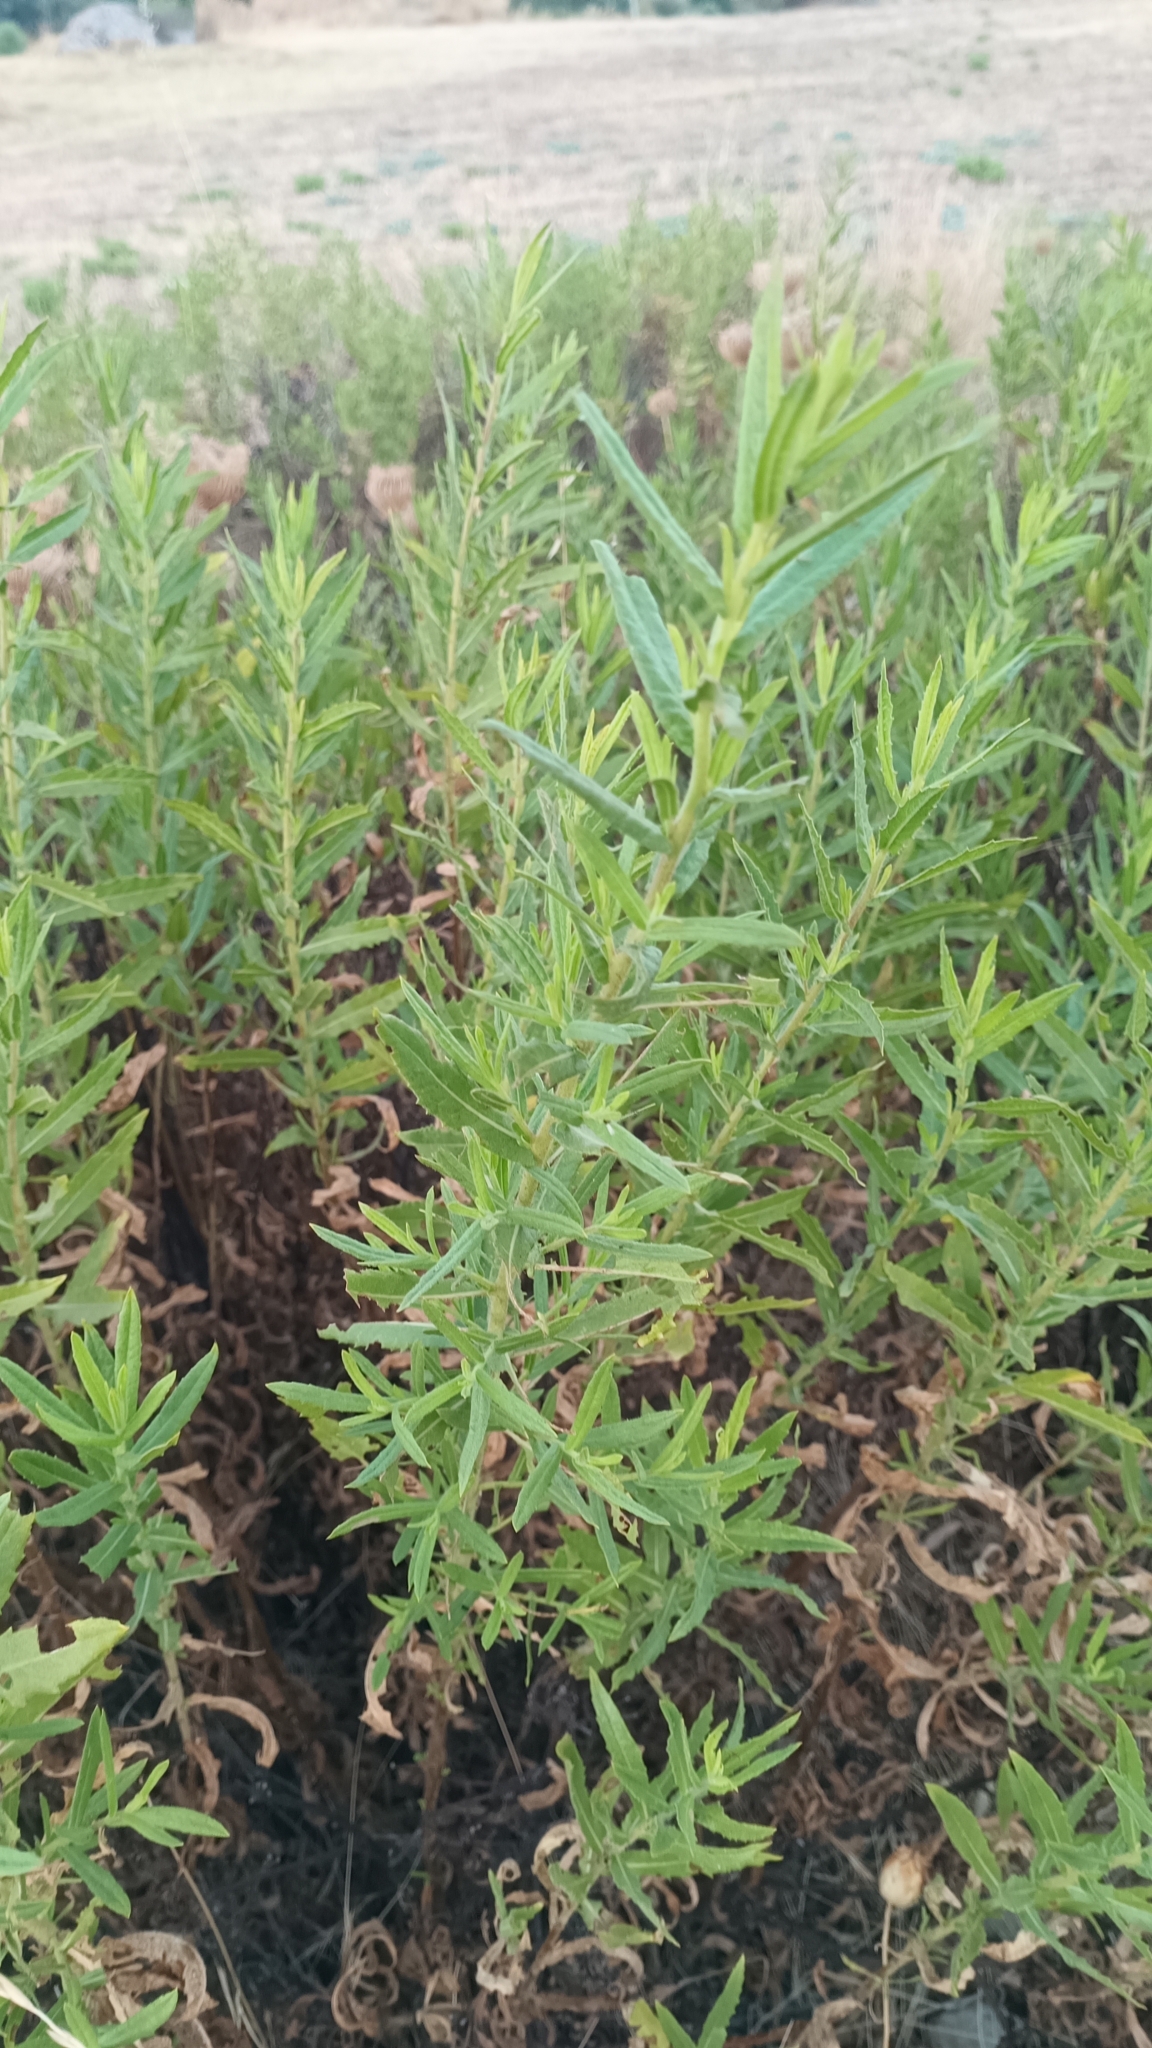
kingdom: Plantae
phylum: Tracheophyta
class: Magnoliopsida
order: Asterales
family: Asteraceae
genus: Dittrichia
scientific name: Dittrichia viscosa
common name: Woody fleabane
